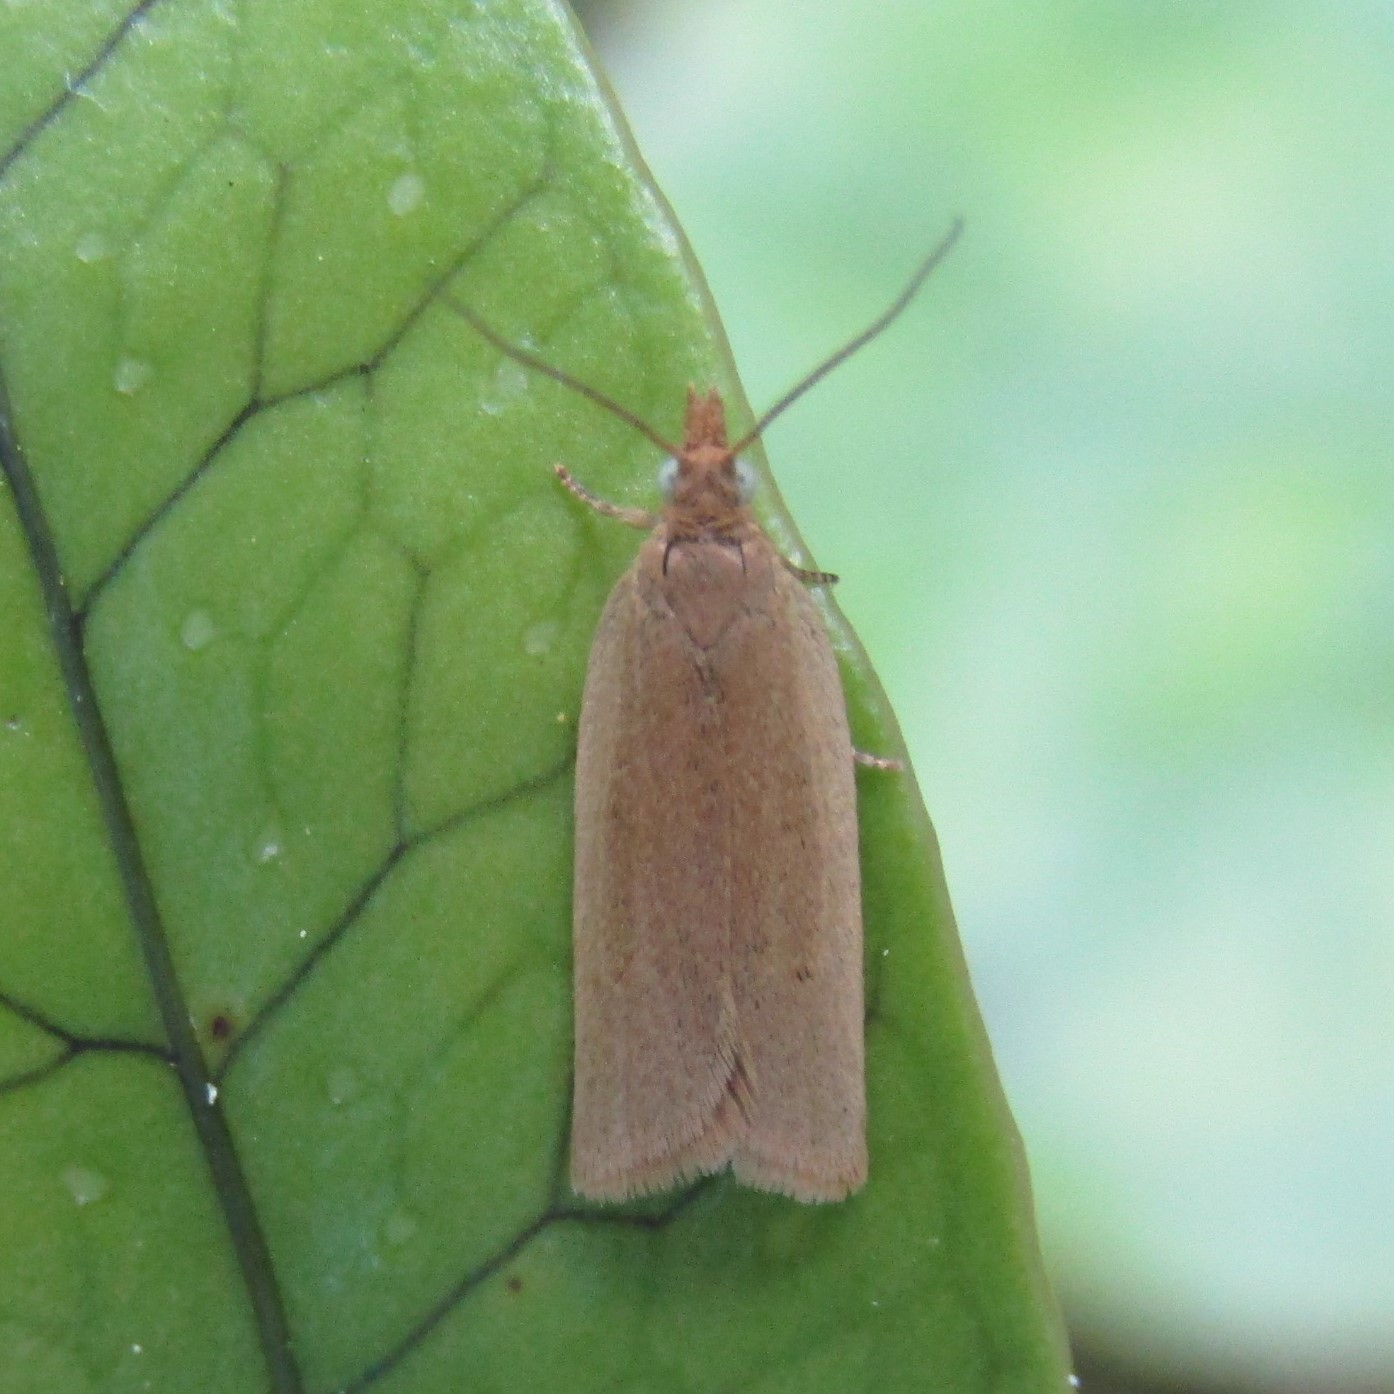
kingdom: Animalia
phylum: Arthropoda
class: Insecta
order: Lepidoptera
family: Tortricidae
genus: Epichorista
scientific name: Epichorista siriana
